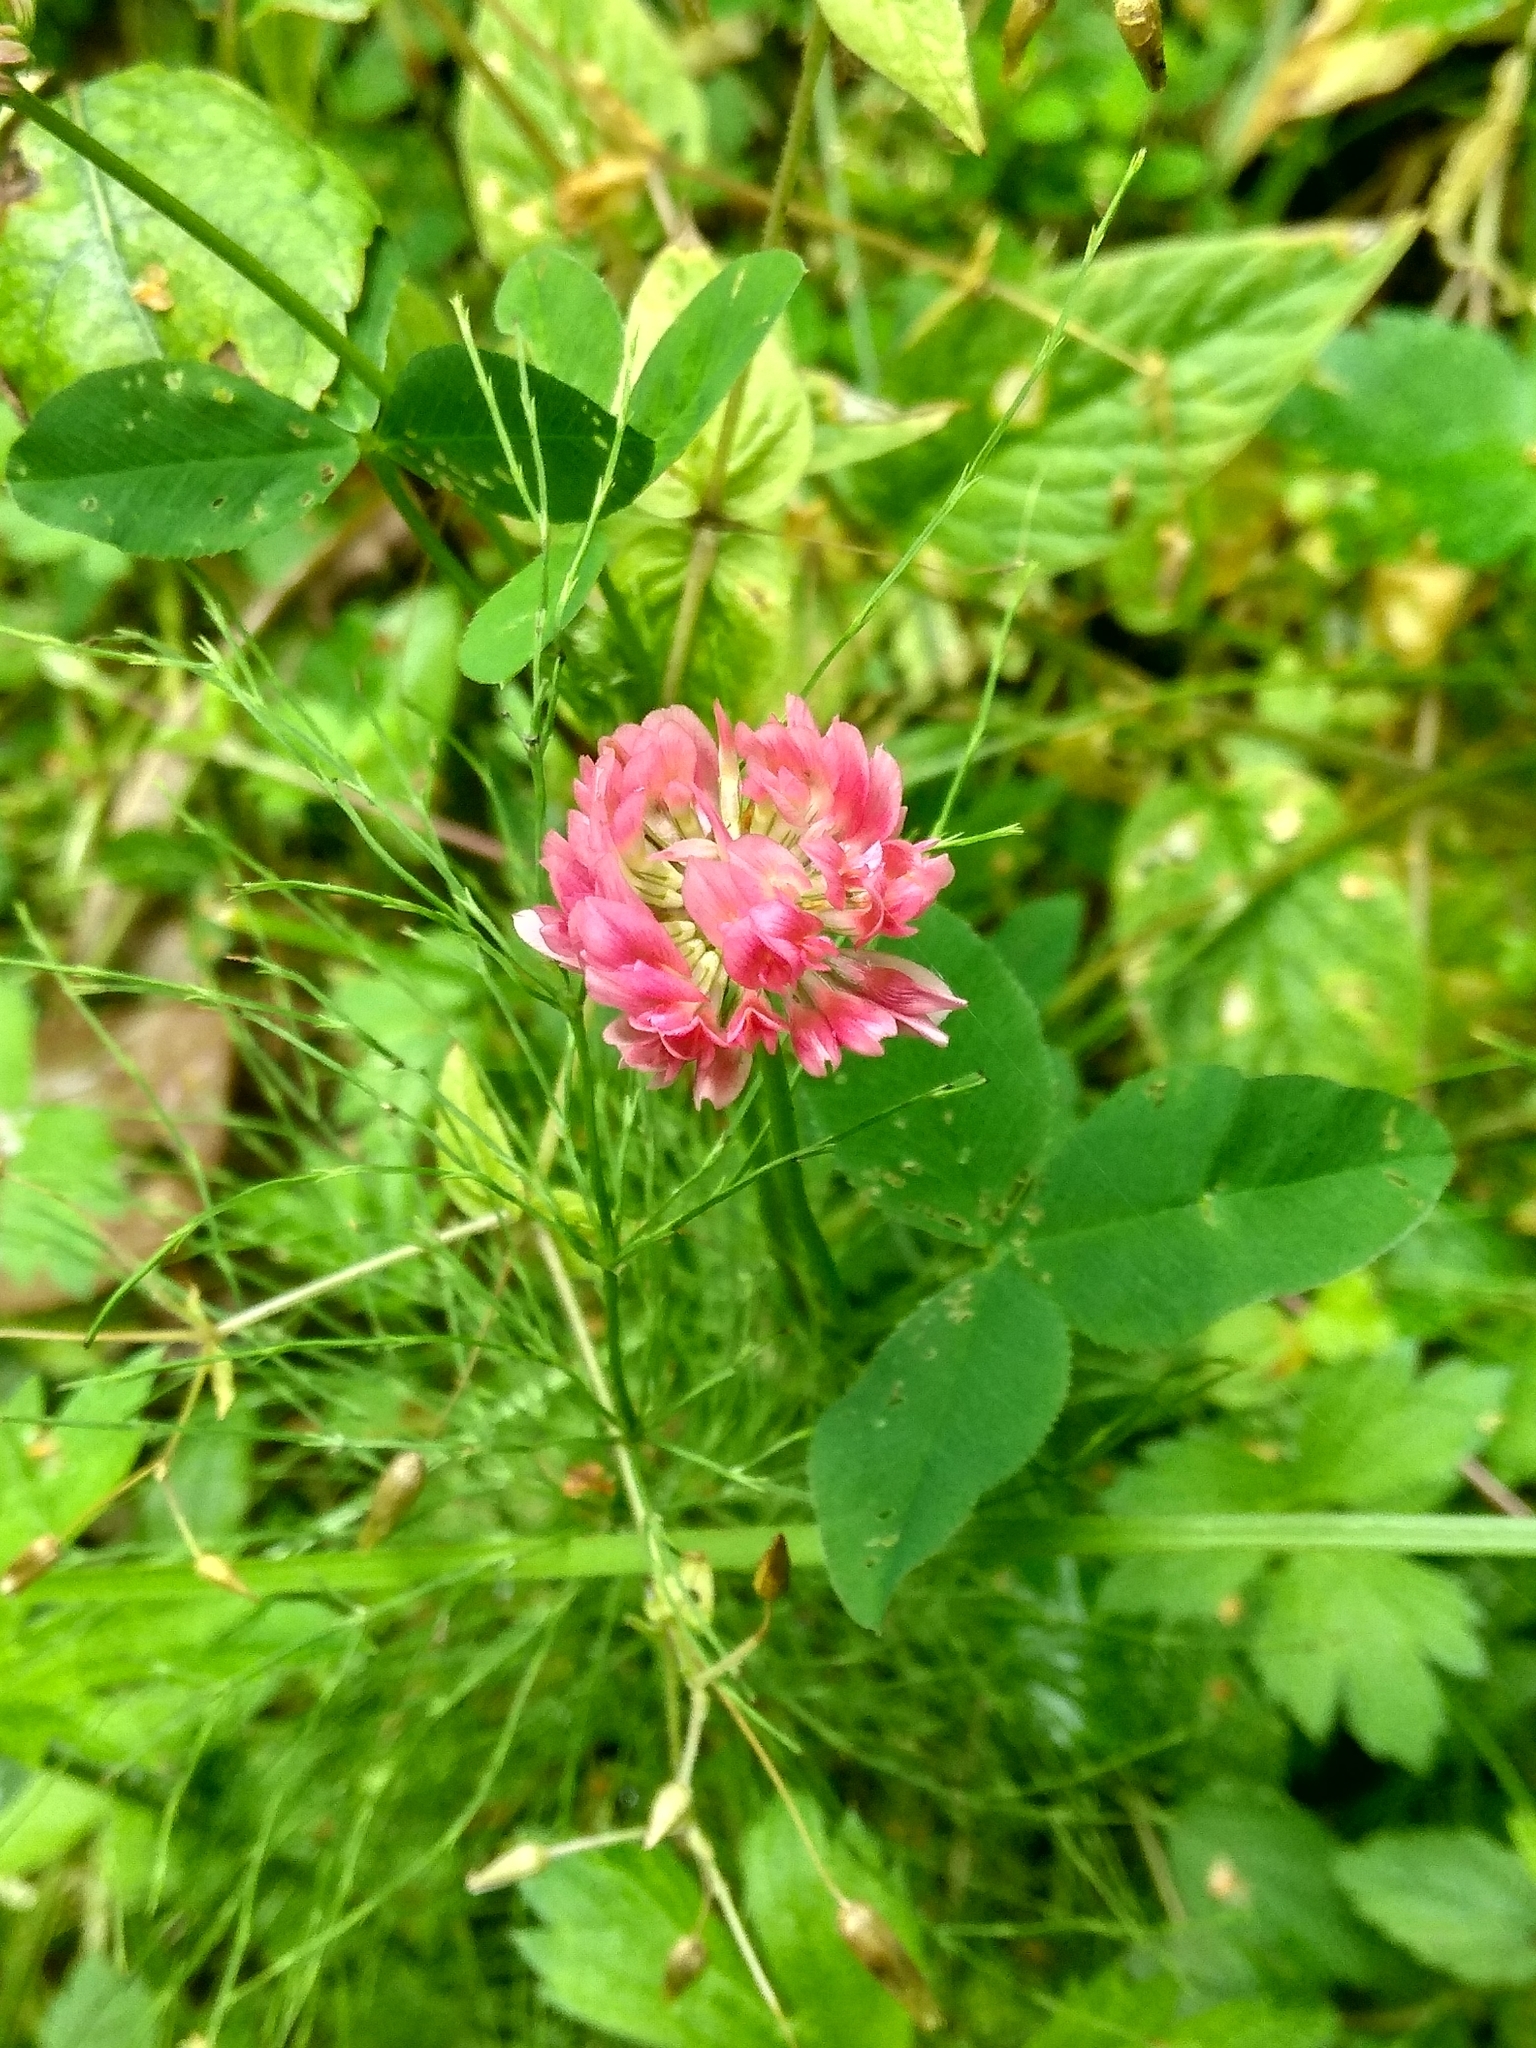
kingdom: Plantae
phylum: Tracheophyta
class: Magnoliopsida
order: Fabales
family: Fabaceae
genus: Trifolium
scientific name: Trifolium hybridum
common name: Alsike clover
